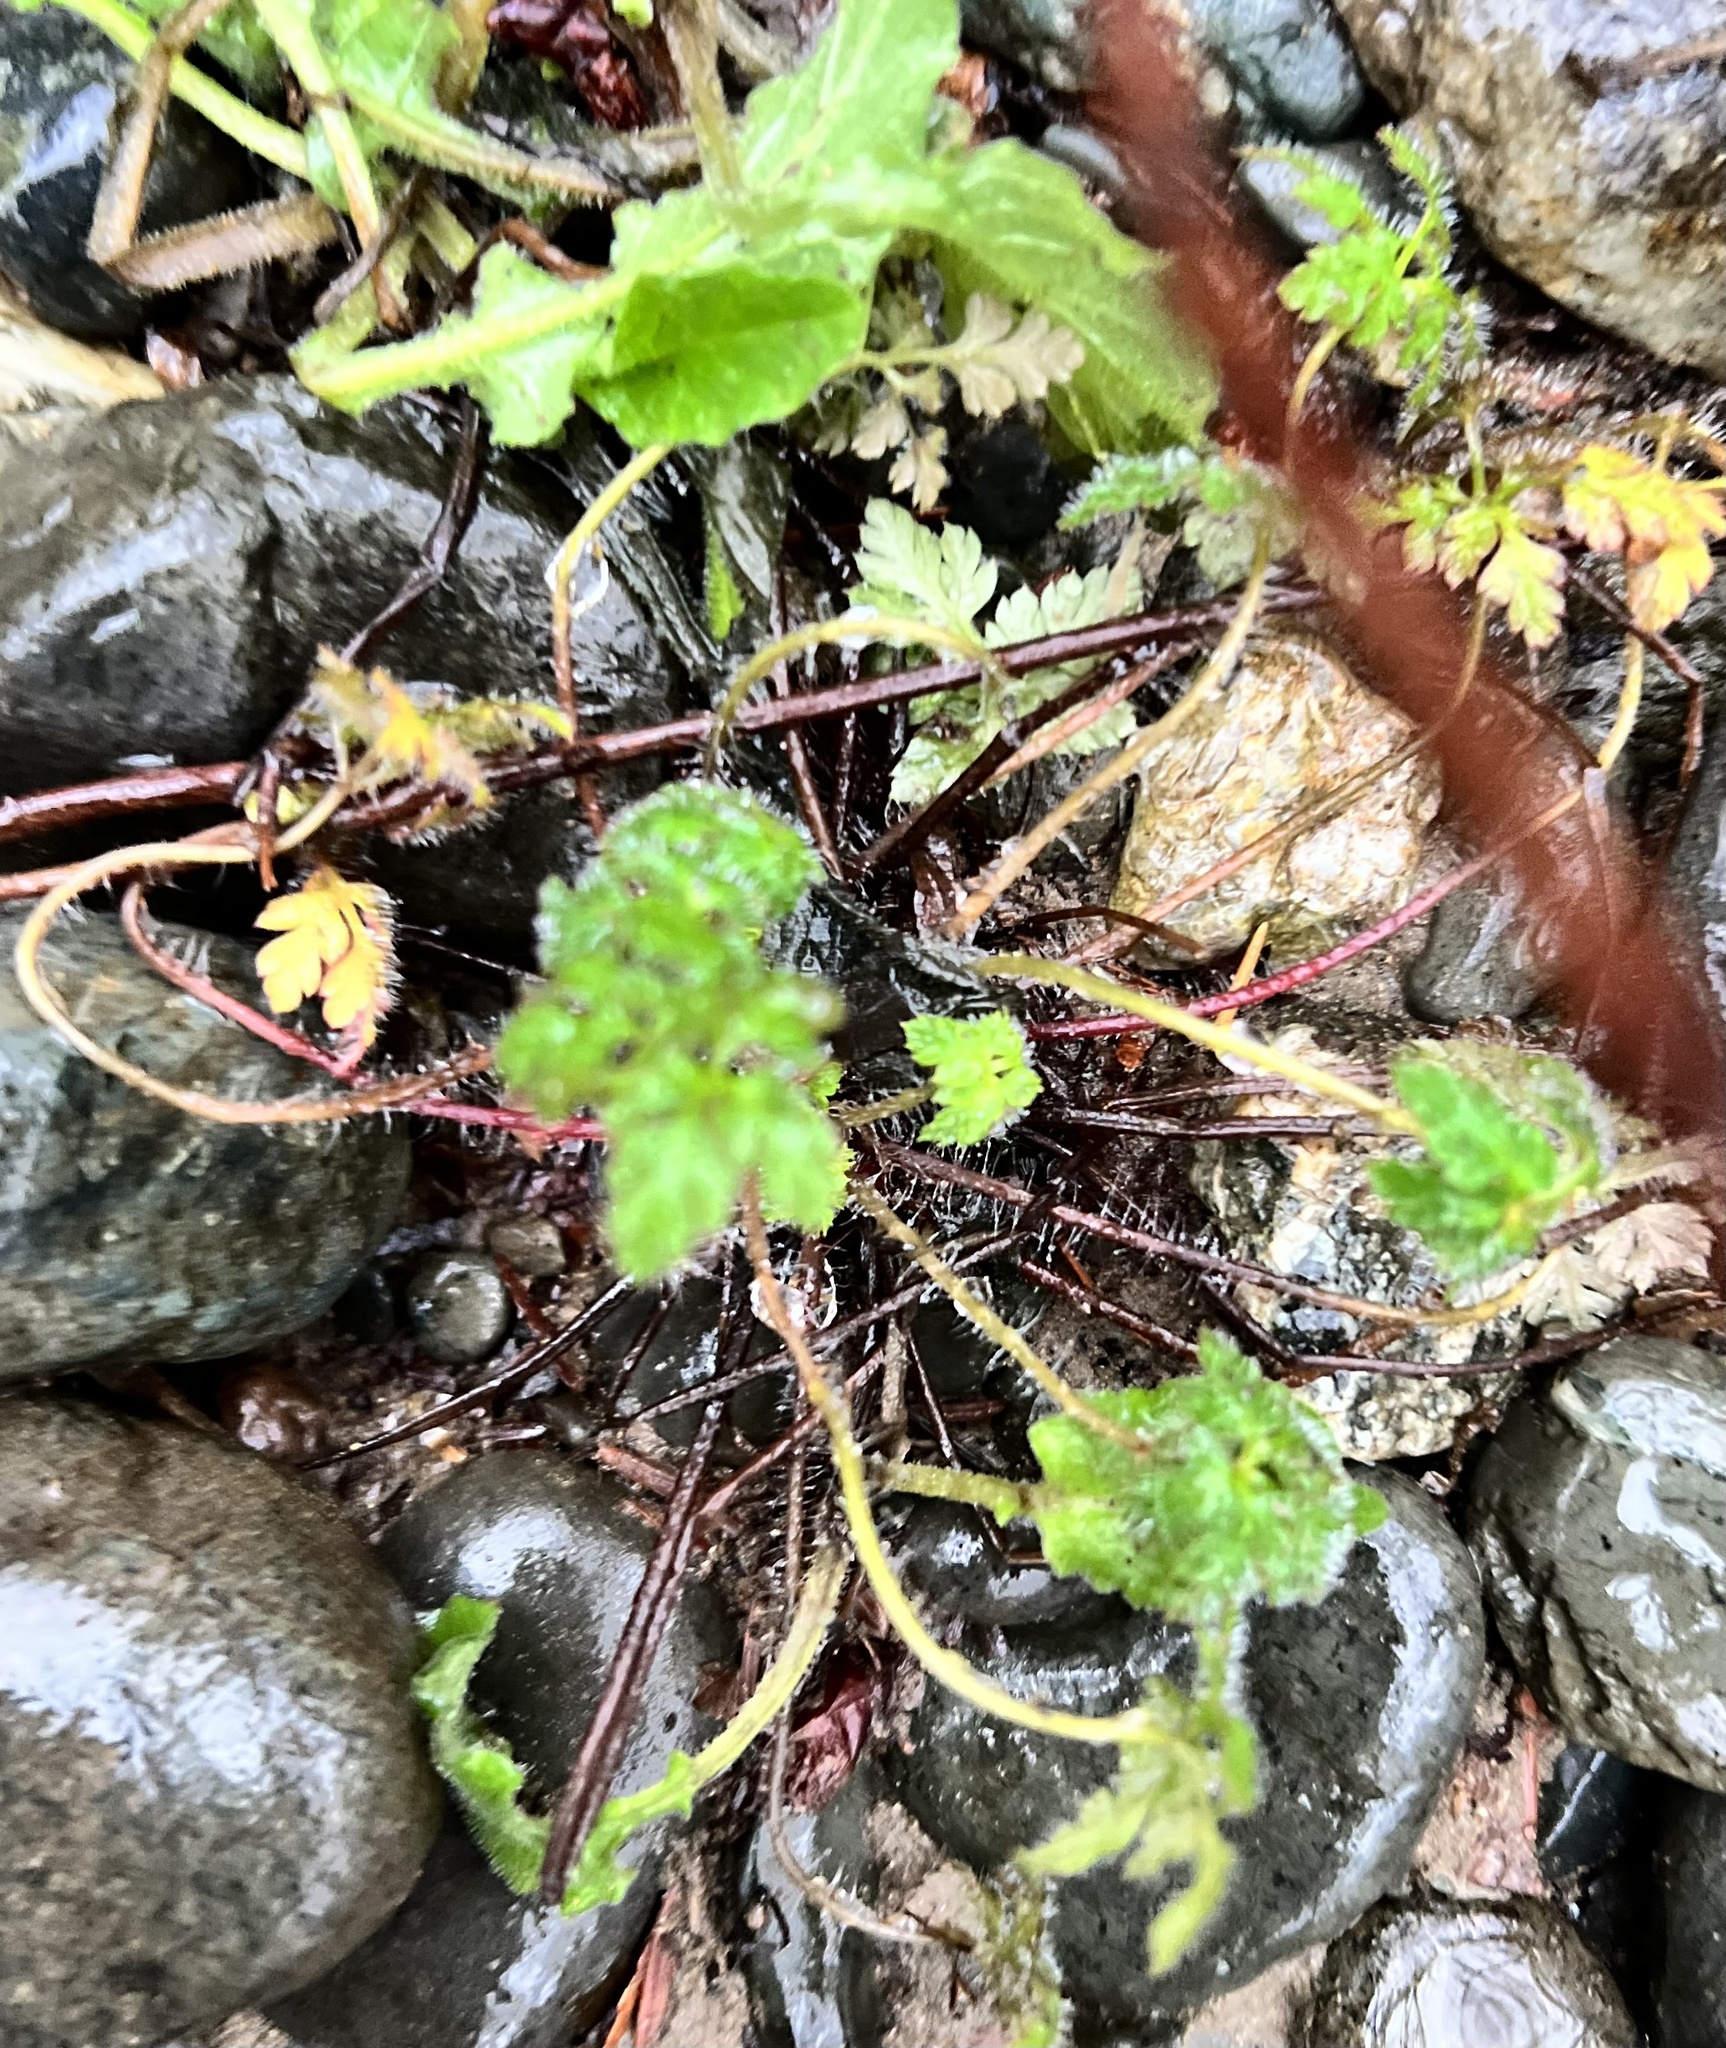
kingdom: Plantae
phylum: Tracheophyta
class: Magnoliopsida
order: Geraniales
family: Geraniaceae
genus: Geranium
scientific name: Geranium robertianum
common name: Herb-robert
